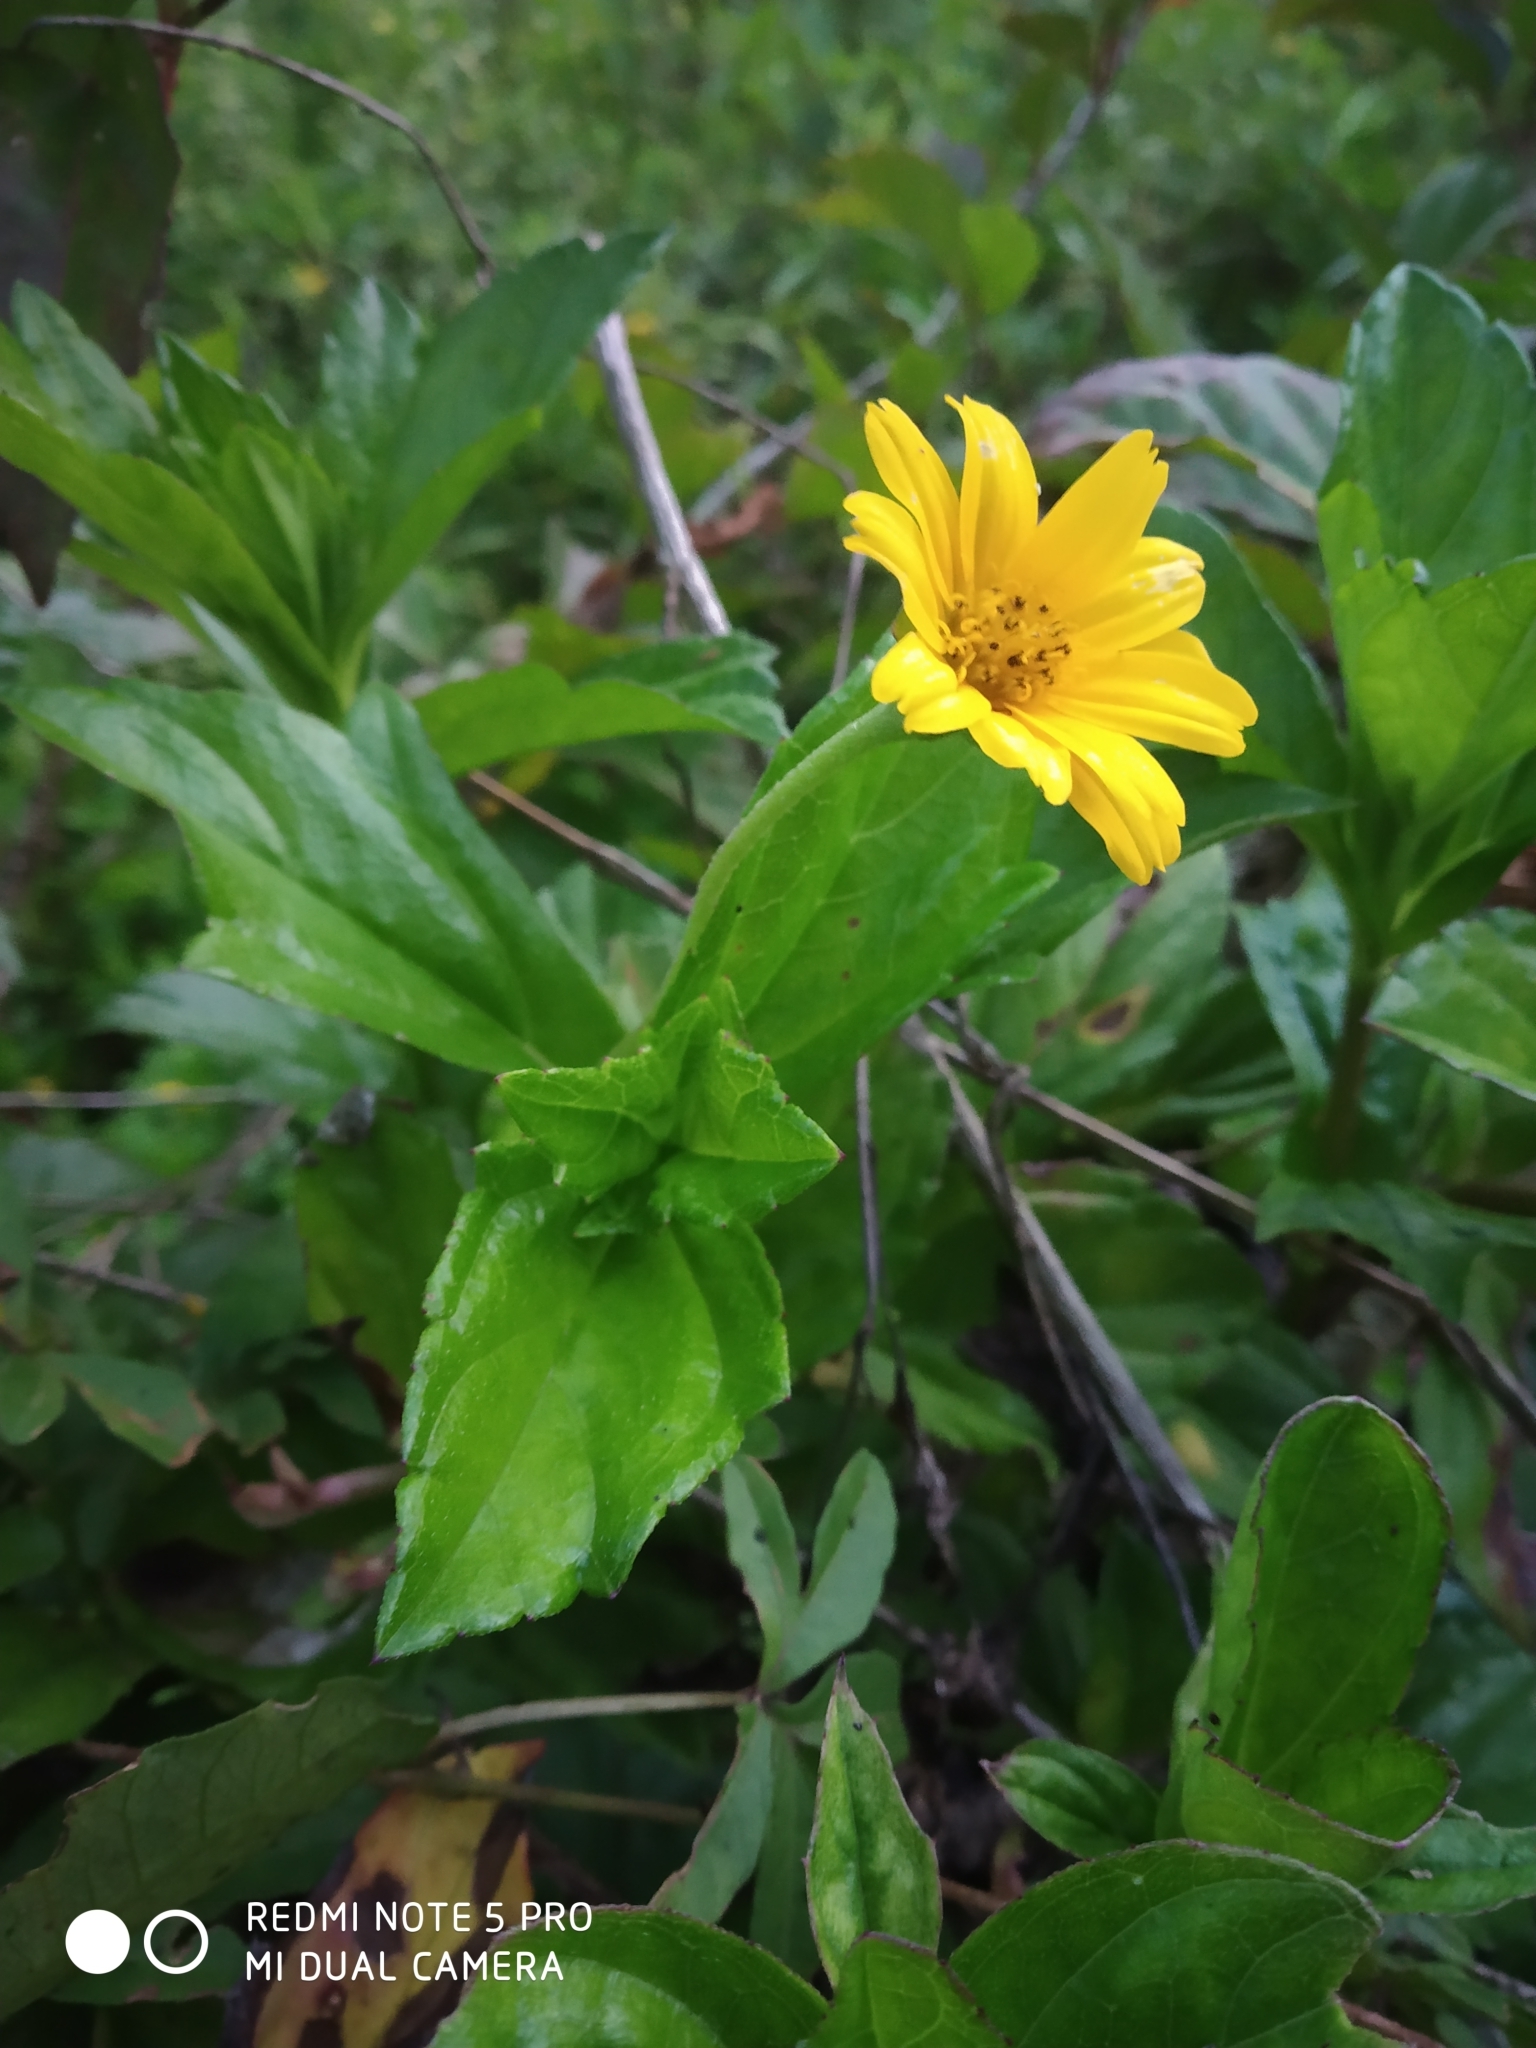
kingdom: Plantae
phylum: Tracheophyta
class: Magnoliopsida
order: Asterales
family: Asteraceae
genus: Sphagneticola
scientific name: Sphagneticola trilobata
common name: Bay biscayne creeping-oxeye
